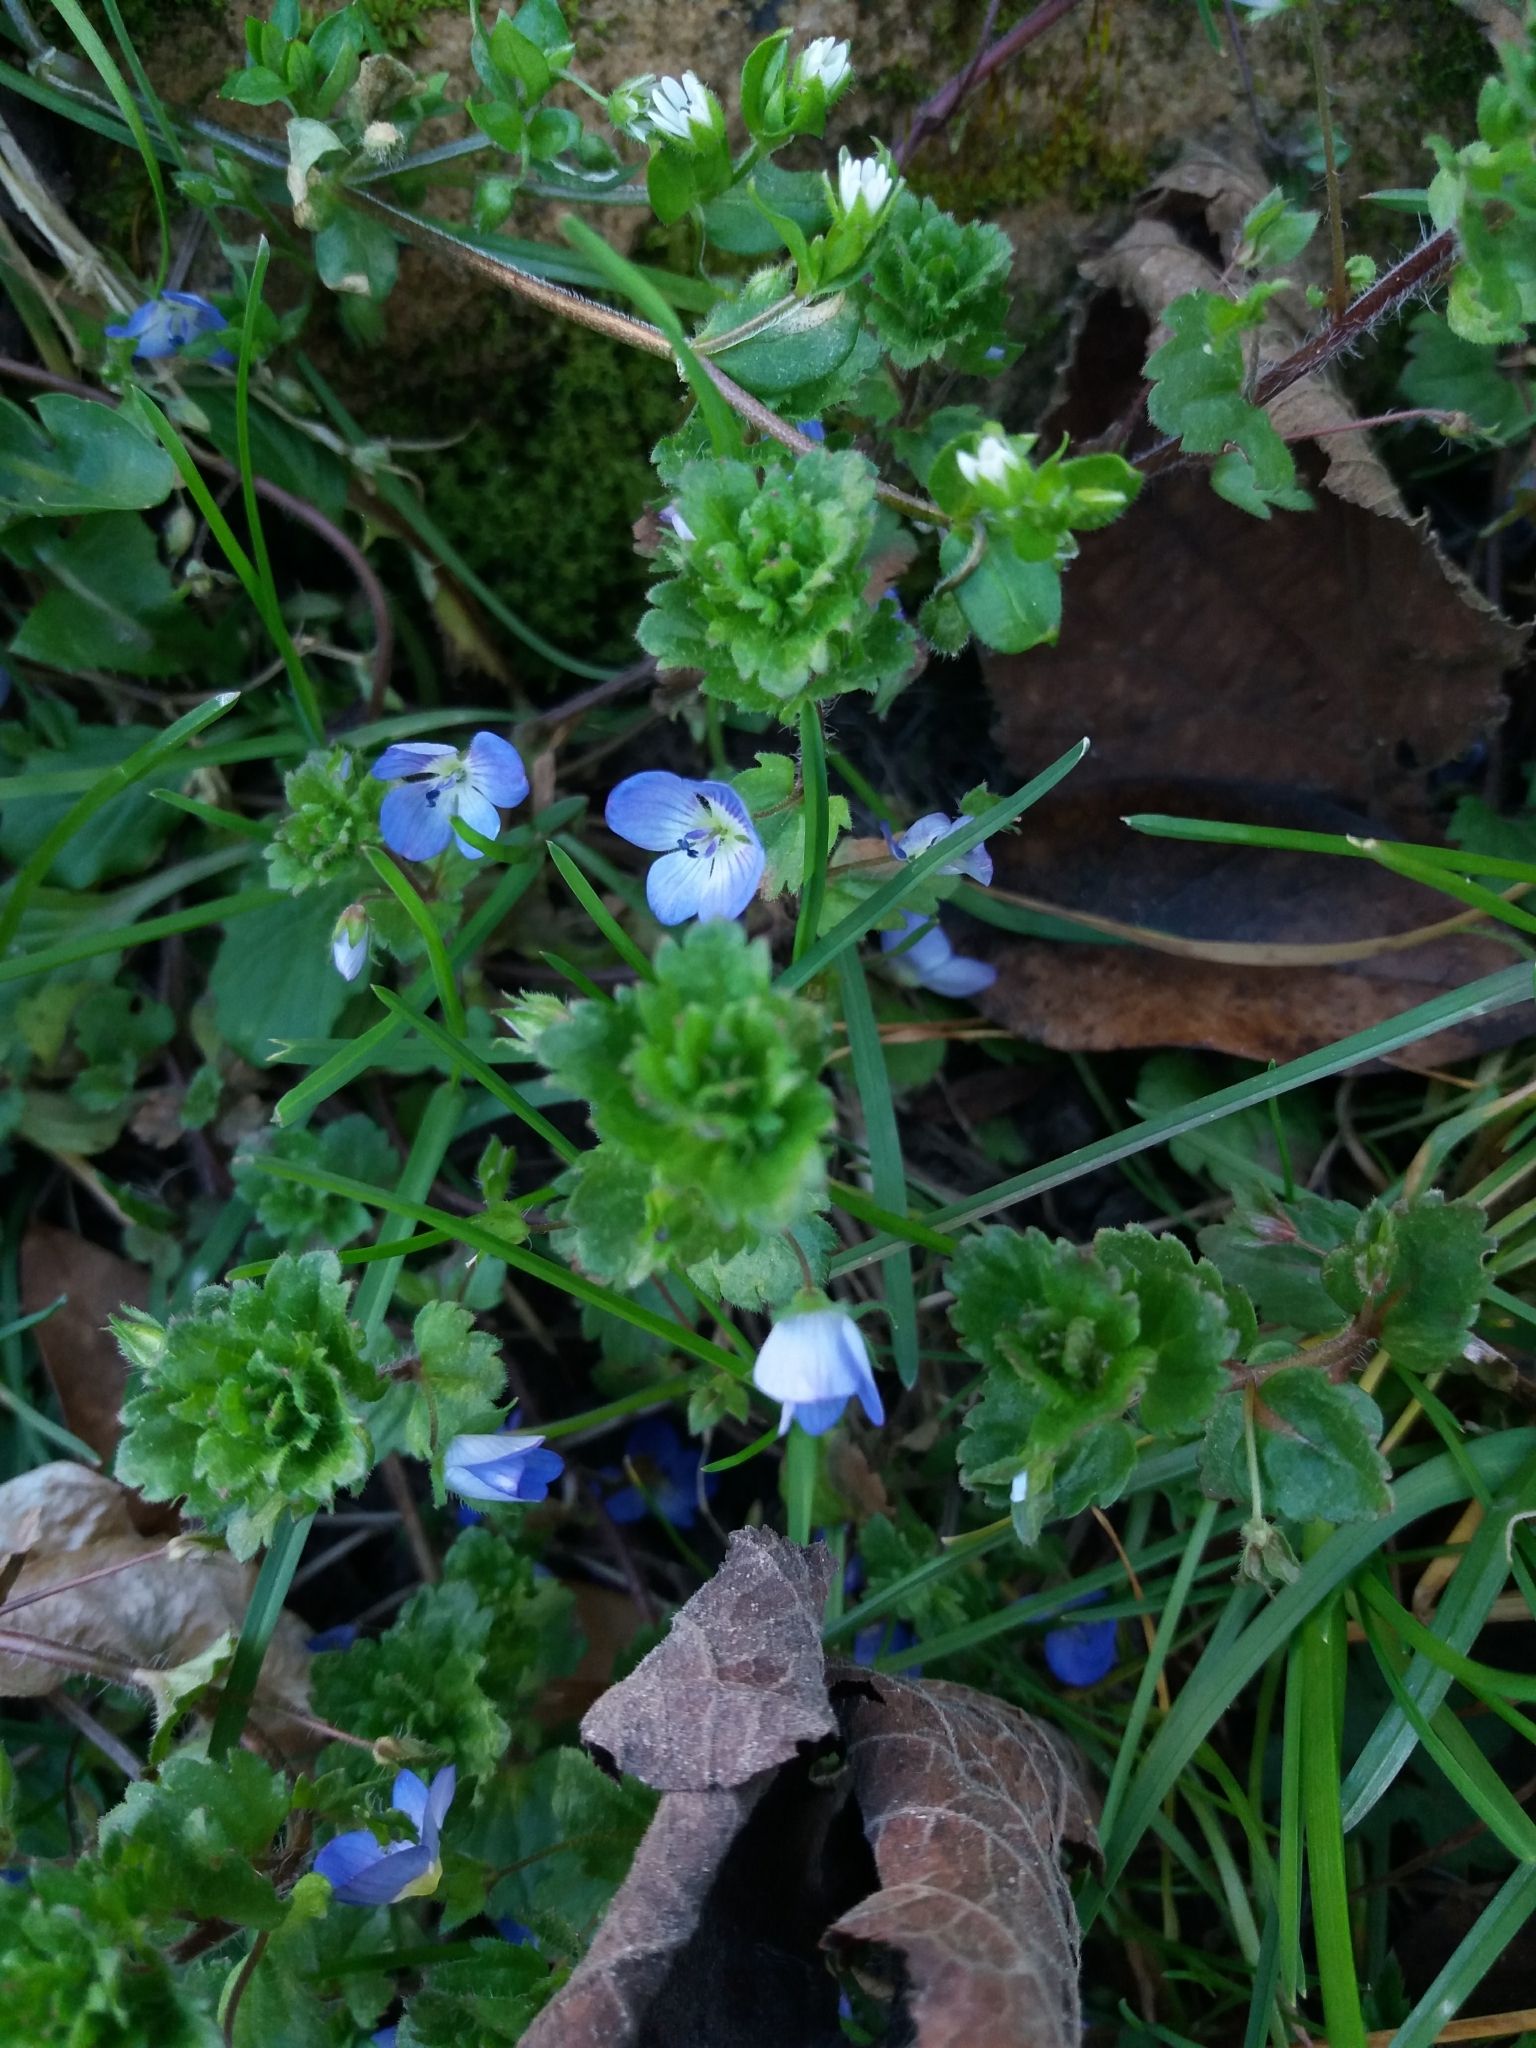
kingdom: Plantae
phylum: Tracheophyta
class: Magnoliopsida
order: Lamiales
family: Plantaginaceae
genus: Veronica
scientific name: Veronica persica
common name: Common field-speedwell
